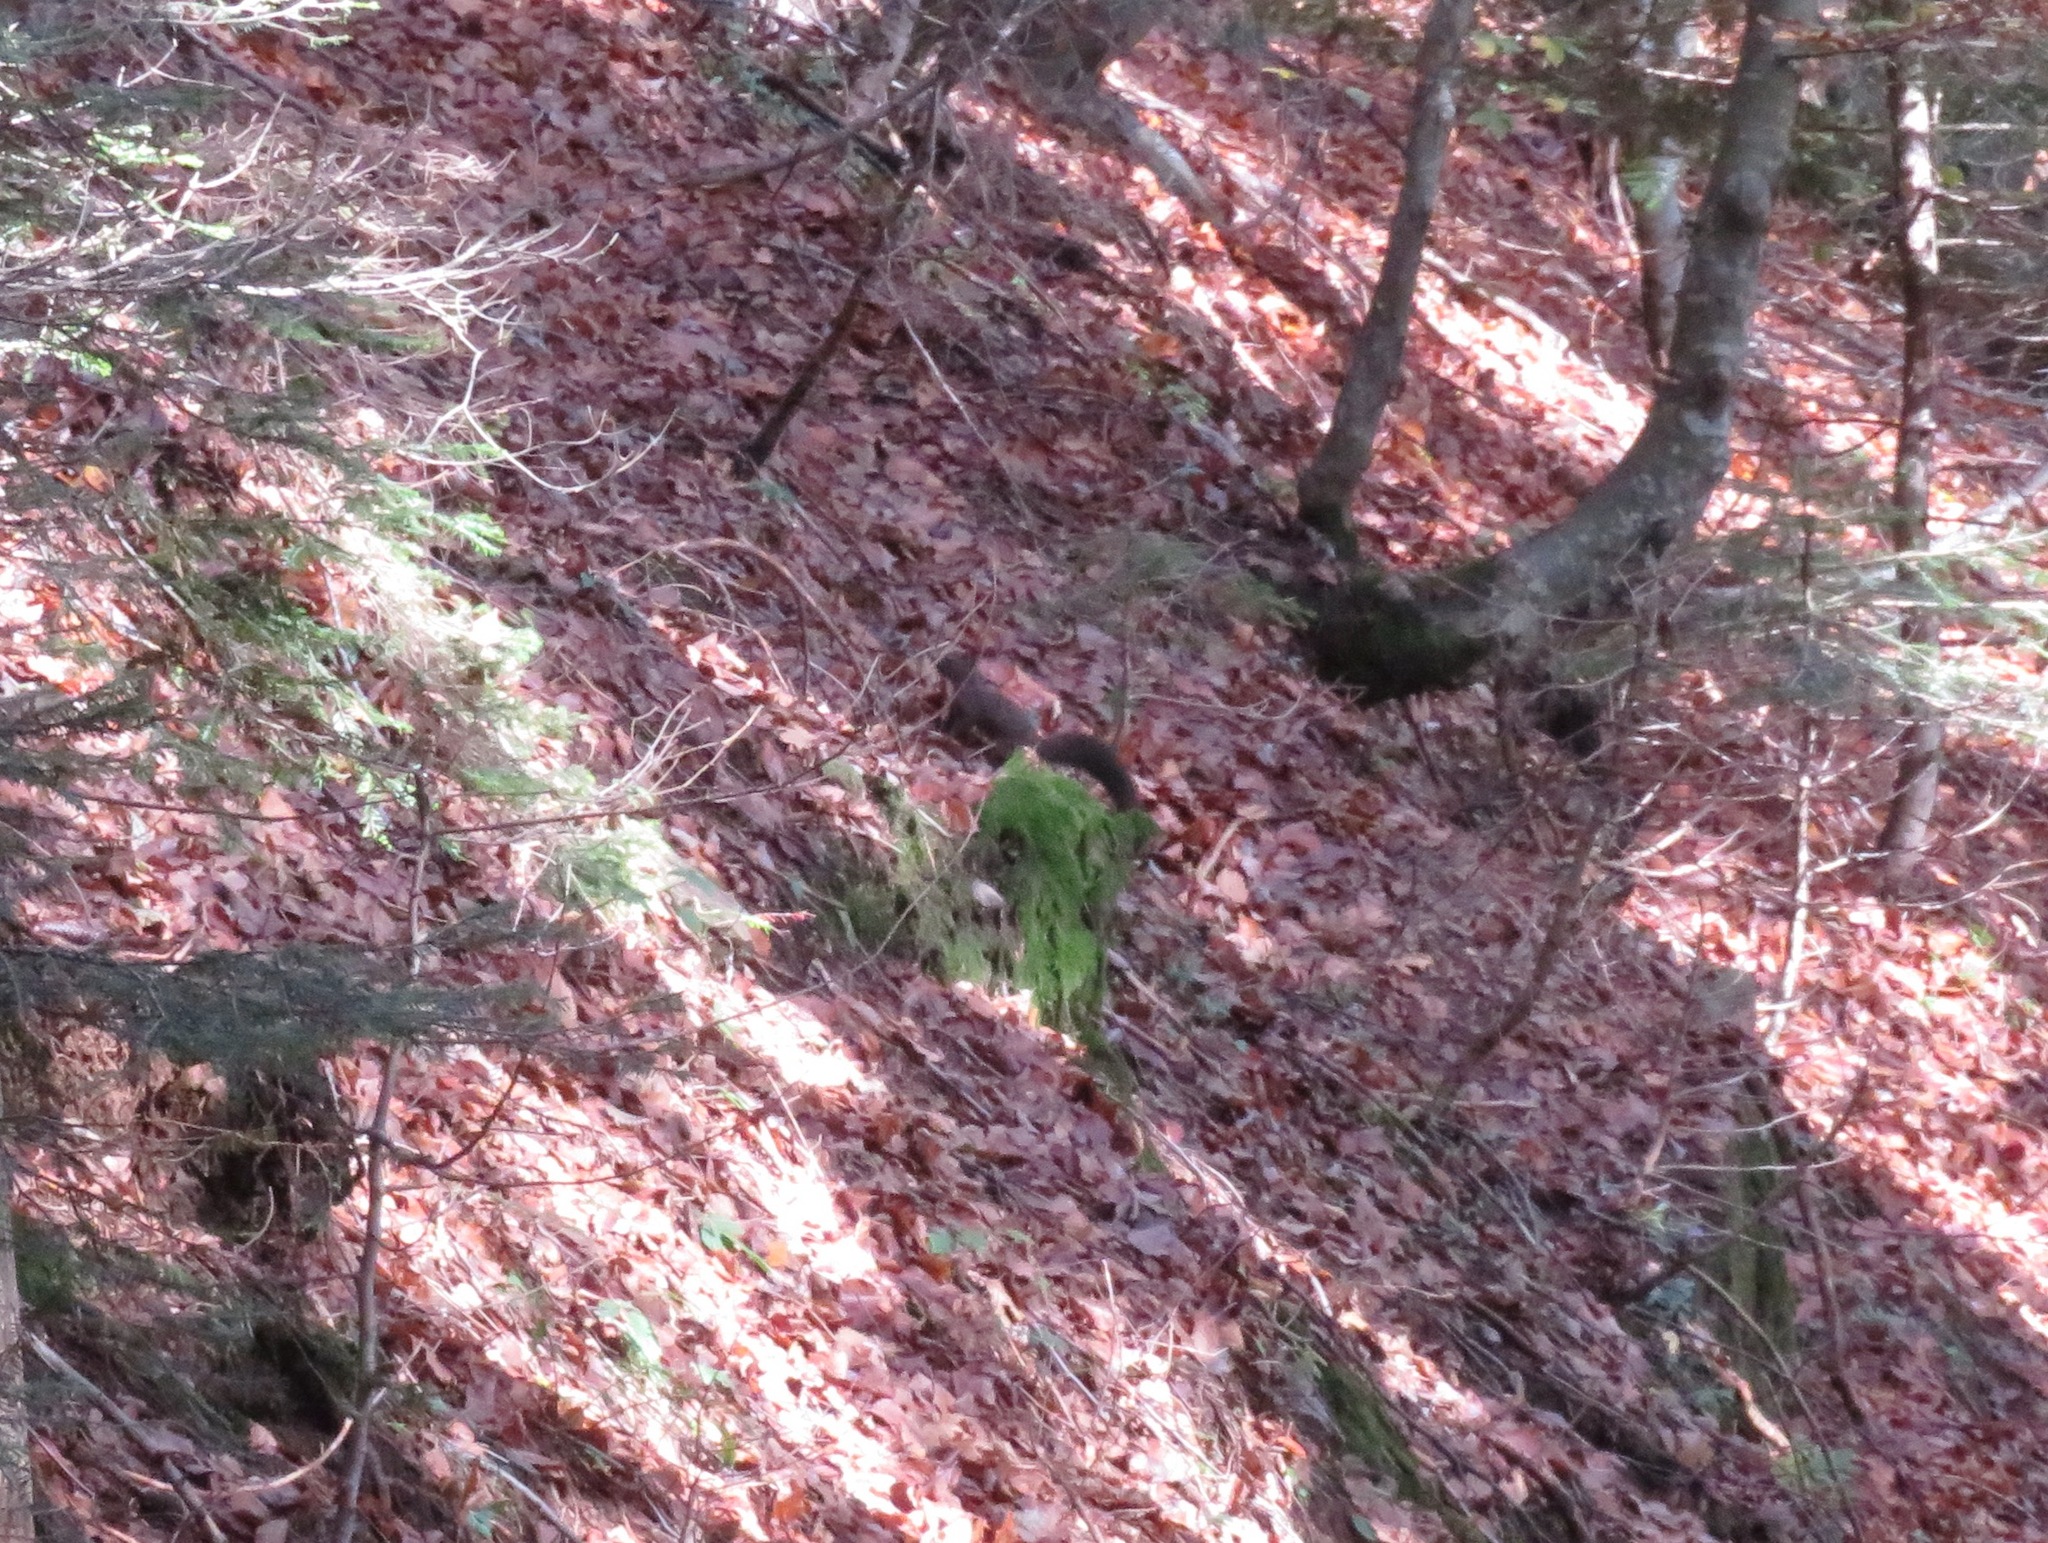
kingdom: Animalia
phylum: Chordata
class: Mammalia
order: Rodentia
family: Sciuridae
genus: Sciurus
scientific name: Sciurus vulgaris
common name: Eurasian red squirrel
